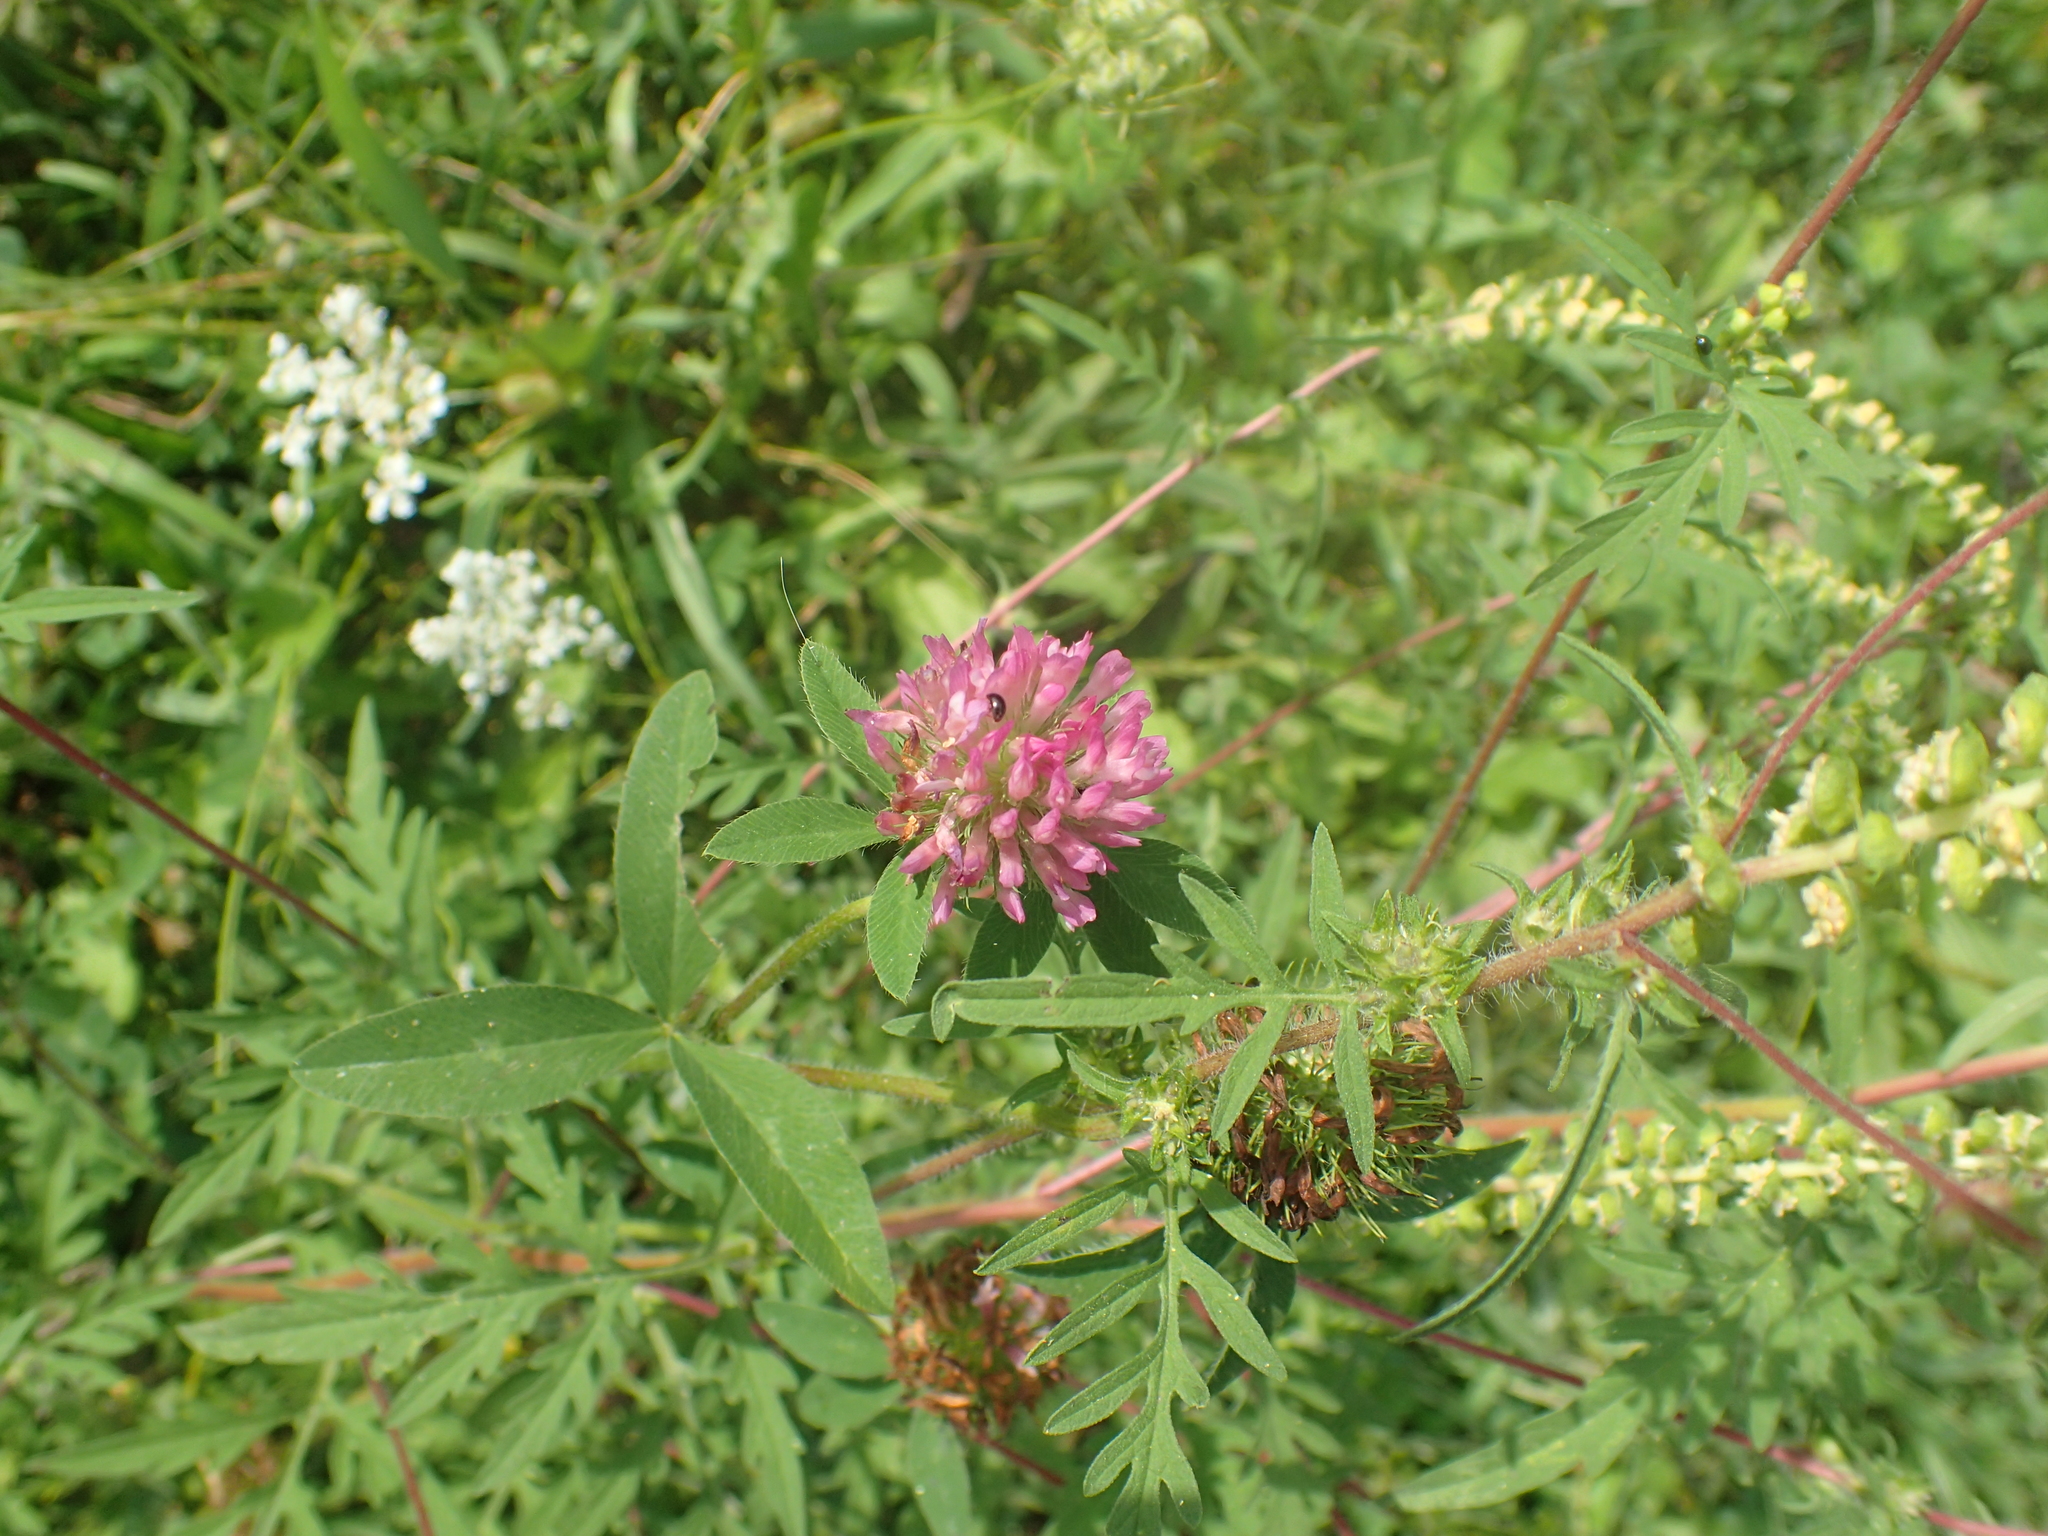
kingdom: Plantae
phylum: Tracheophyta
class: Magnoliopsida
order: Fabales
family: Fabaceae
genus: Trifolium
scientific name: Trifolium pratense
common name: Red clover
